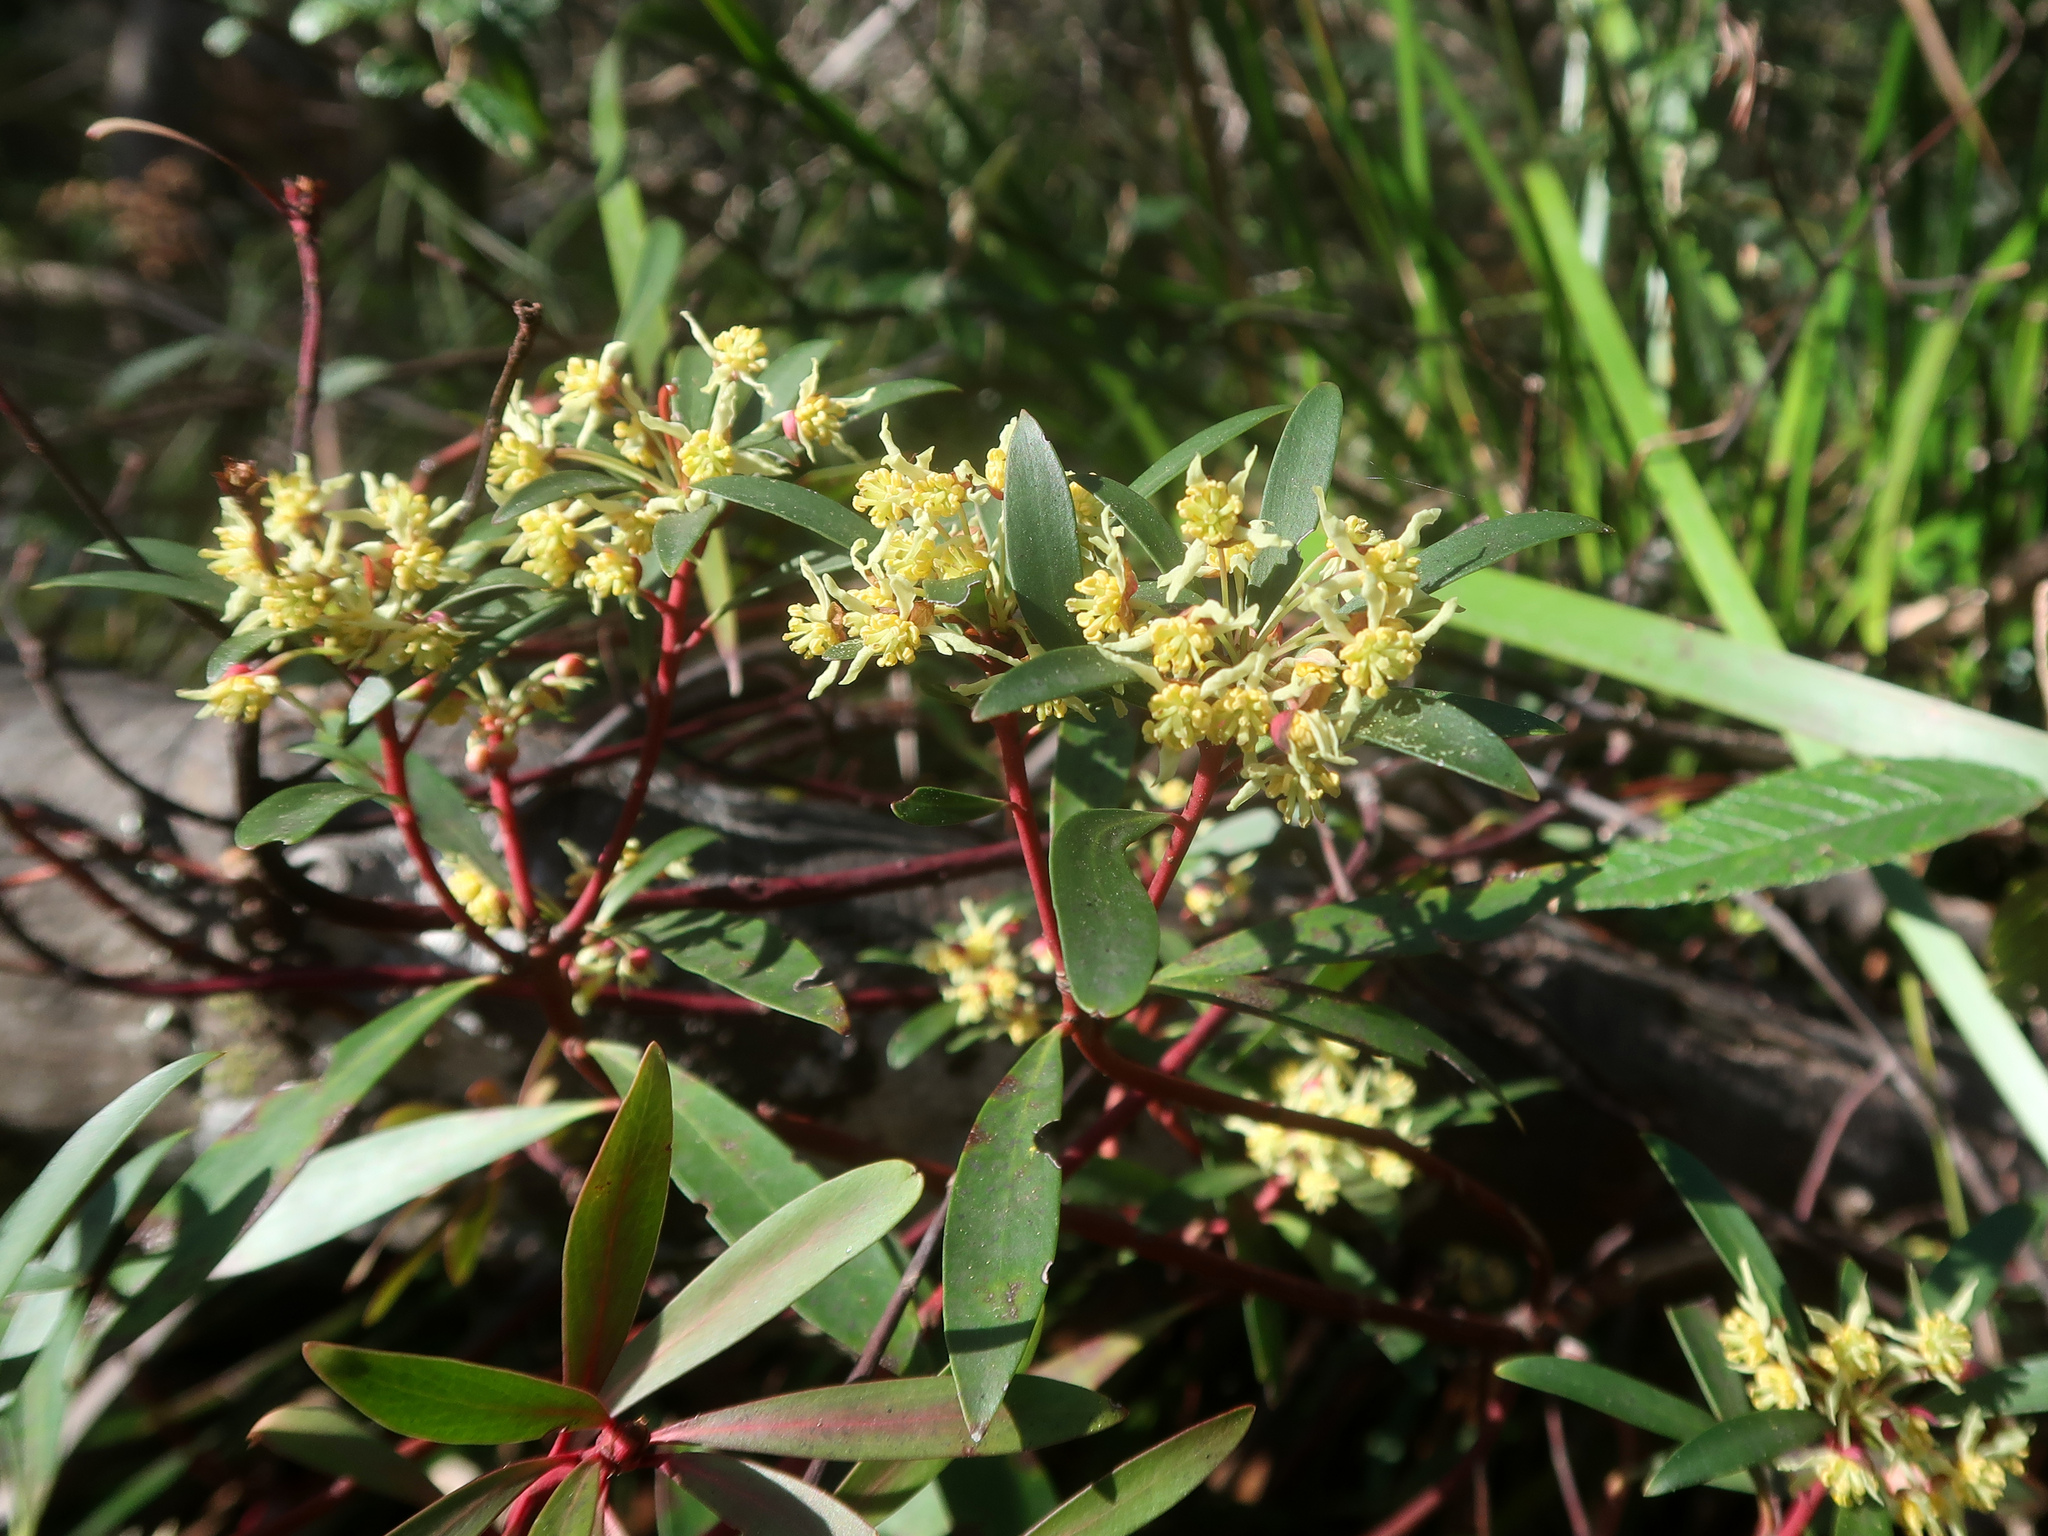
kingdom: Plantae
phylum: Tracheophyta
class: Magnoliopsida
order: Canellales
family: Winteraceae
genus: Drimys
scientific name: Drimys aromatica
